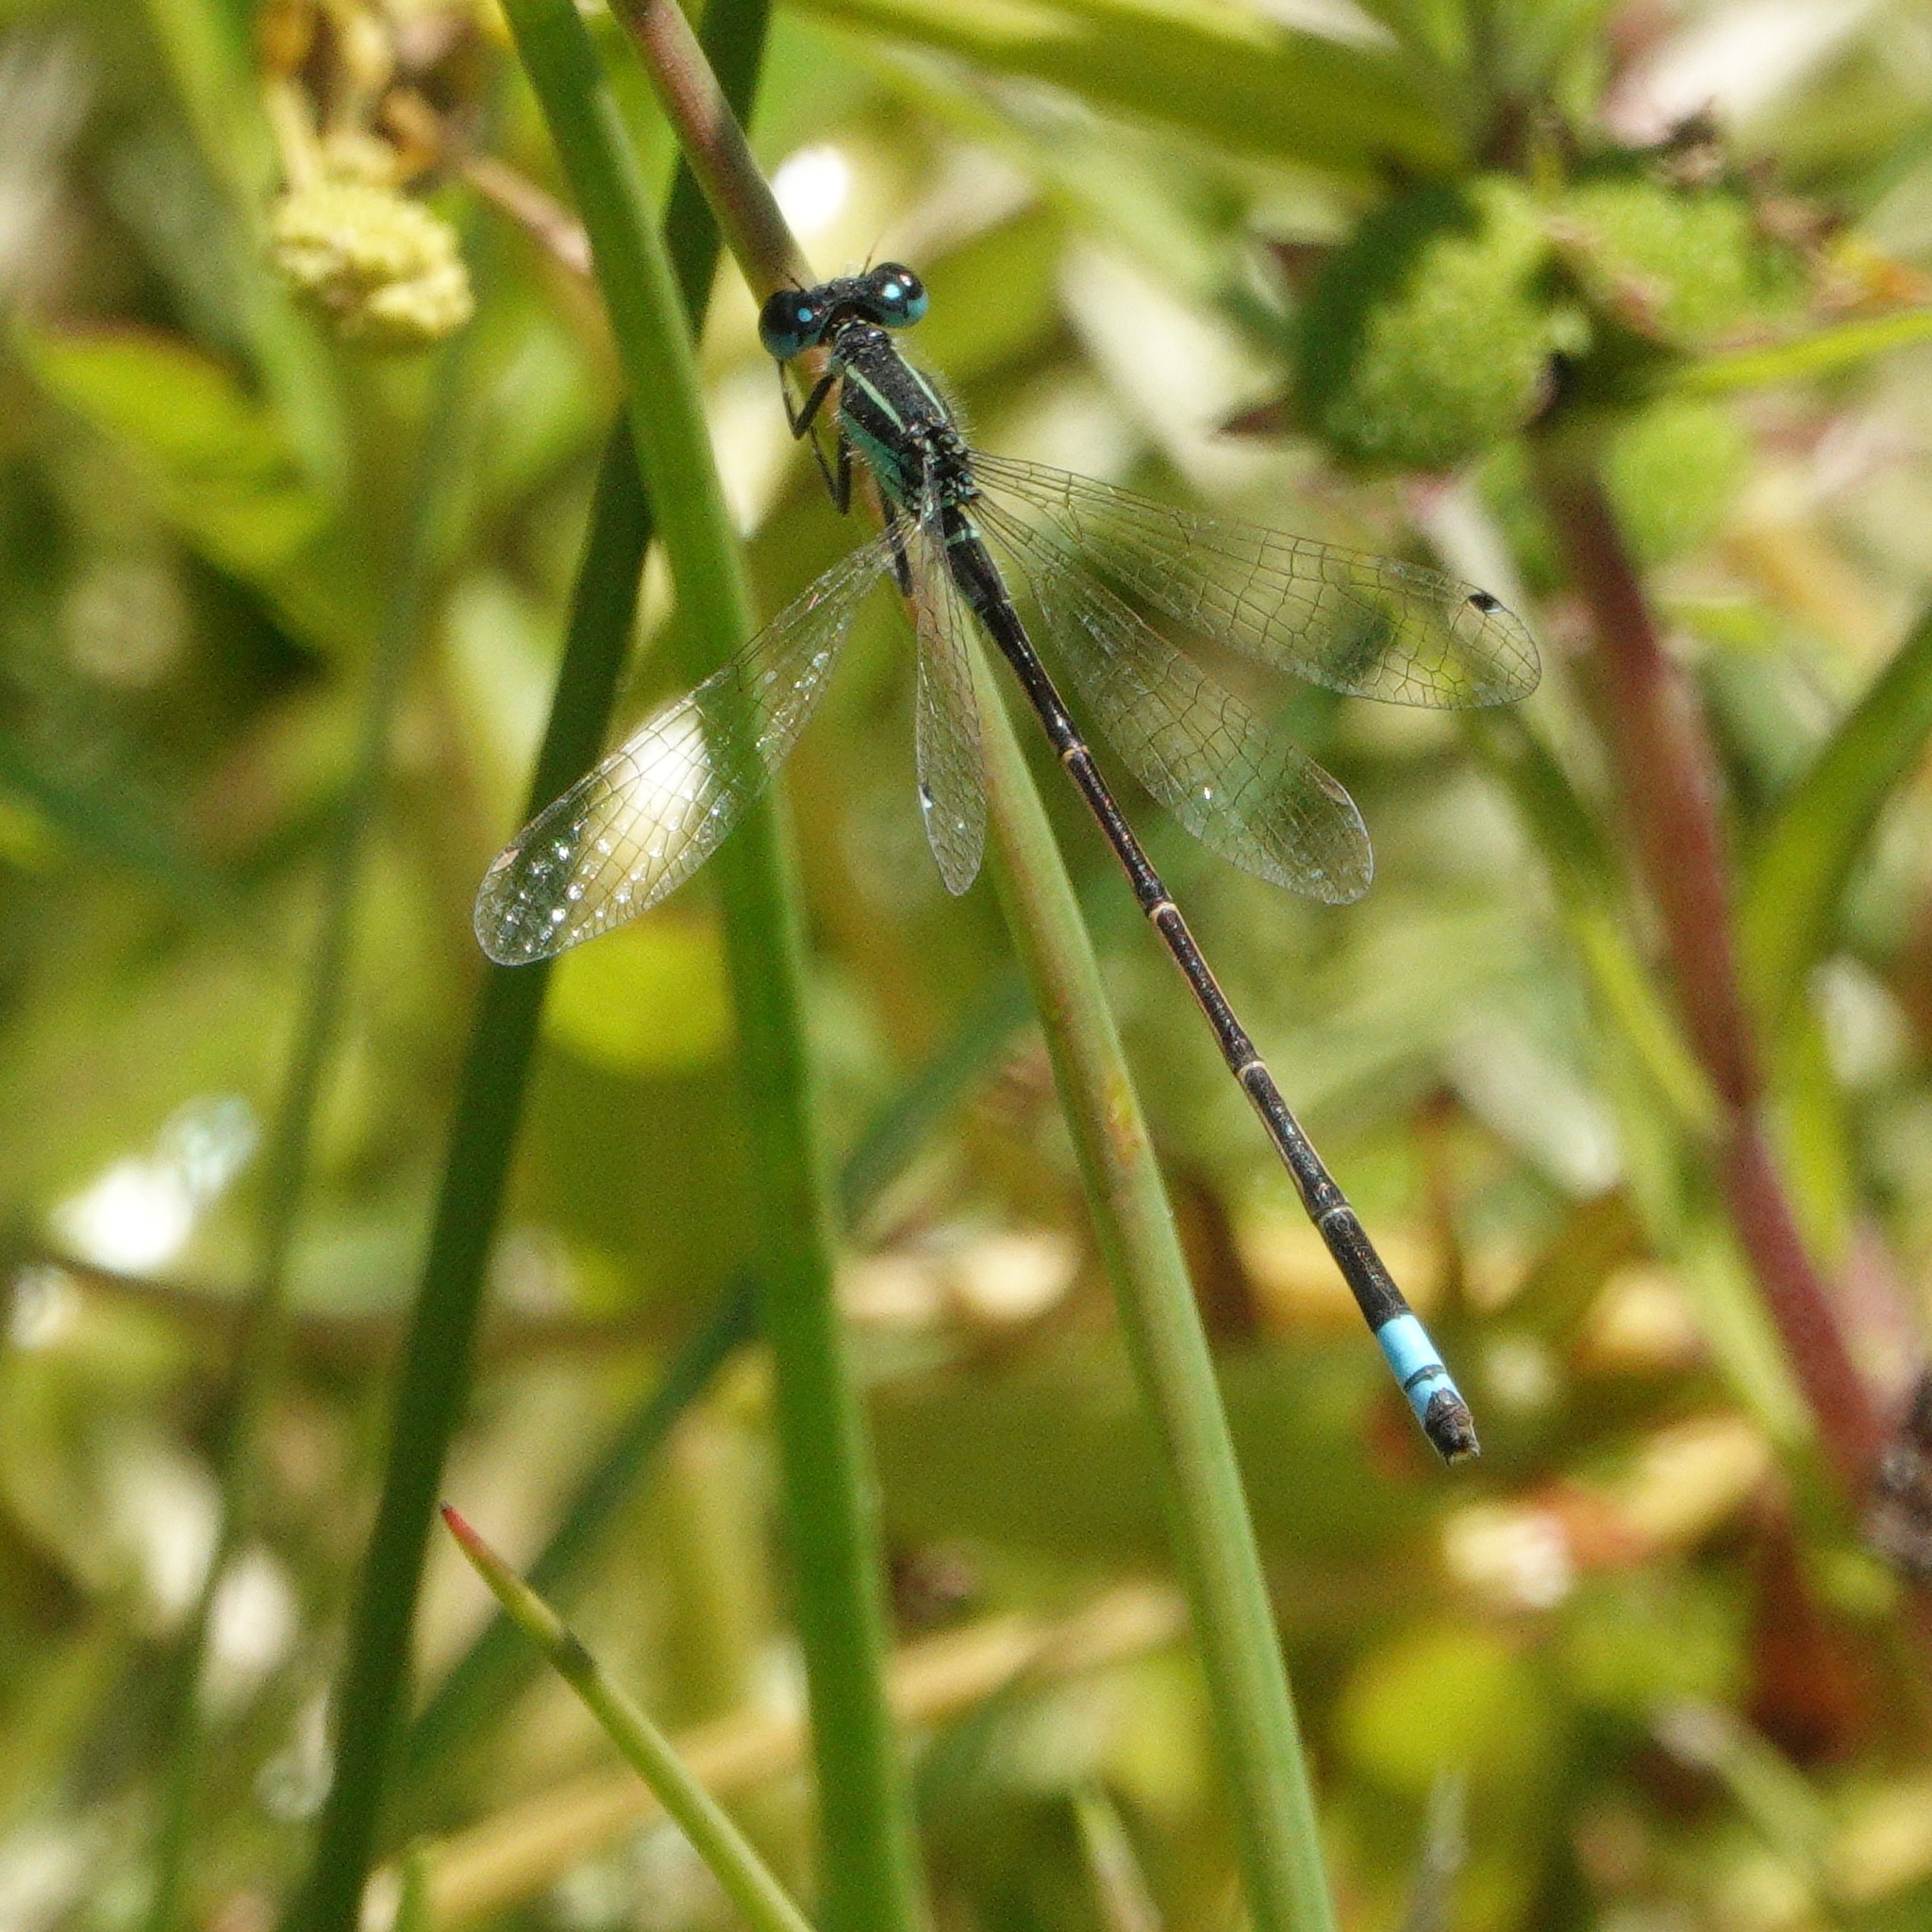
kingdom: Animalia
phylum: Arthropoda
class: Insecta
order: Odonata
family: Coenagrionidae
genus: Ischnura
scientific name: Ischnura ramburii
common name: Rambur's forktail
